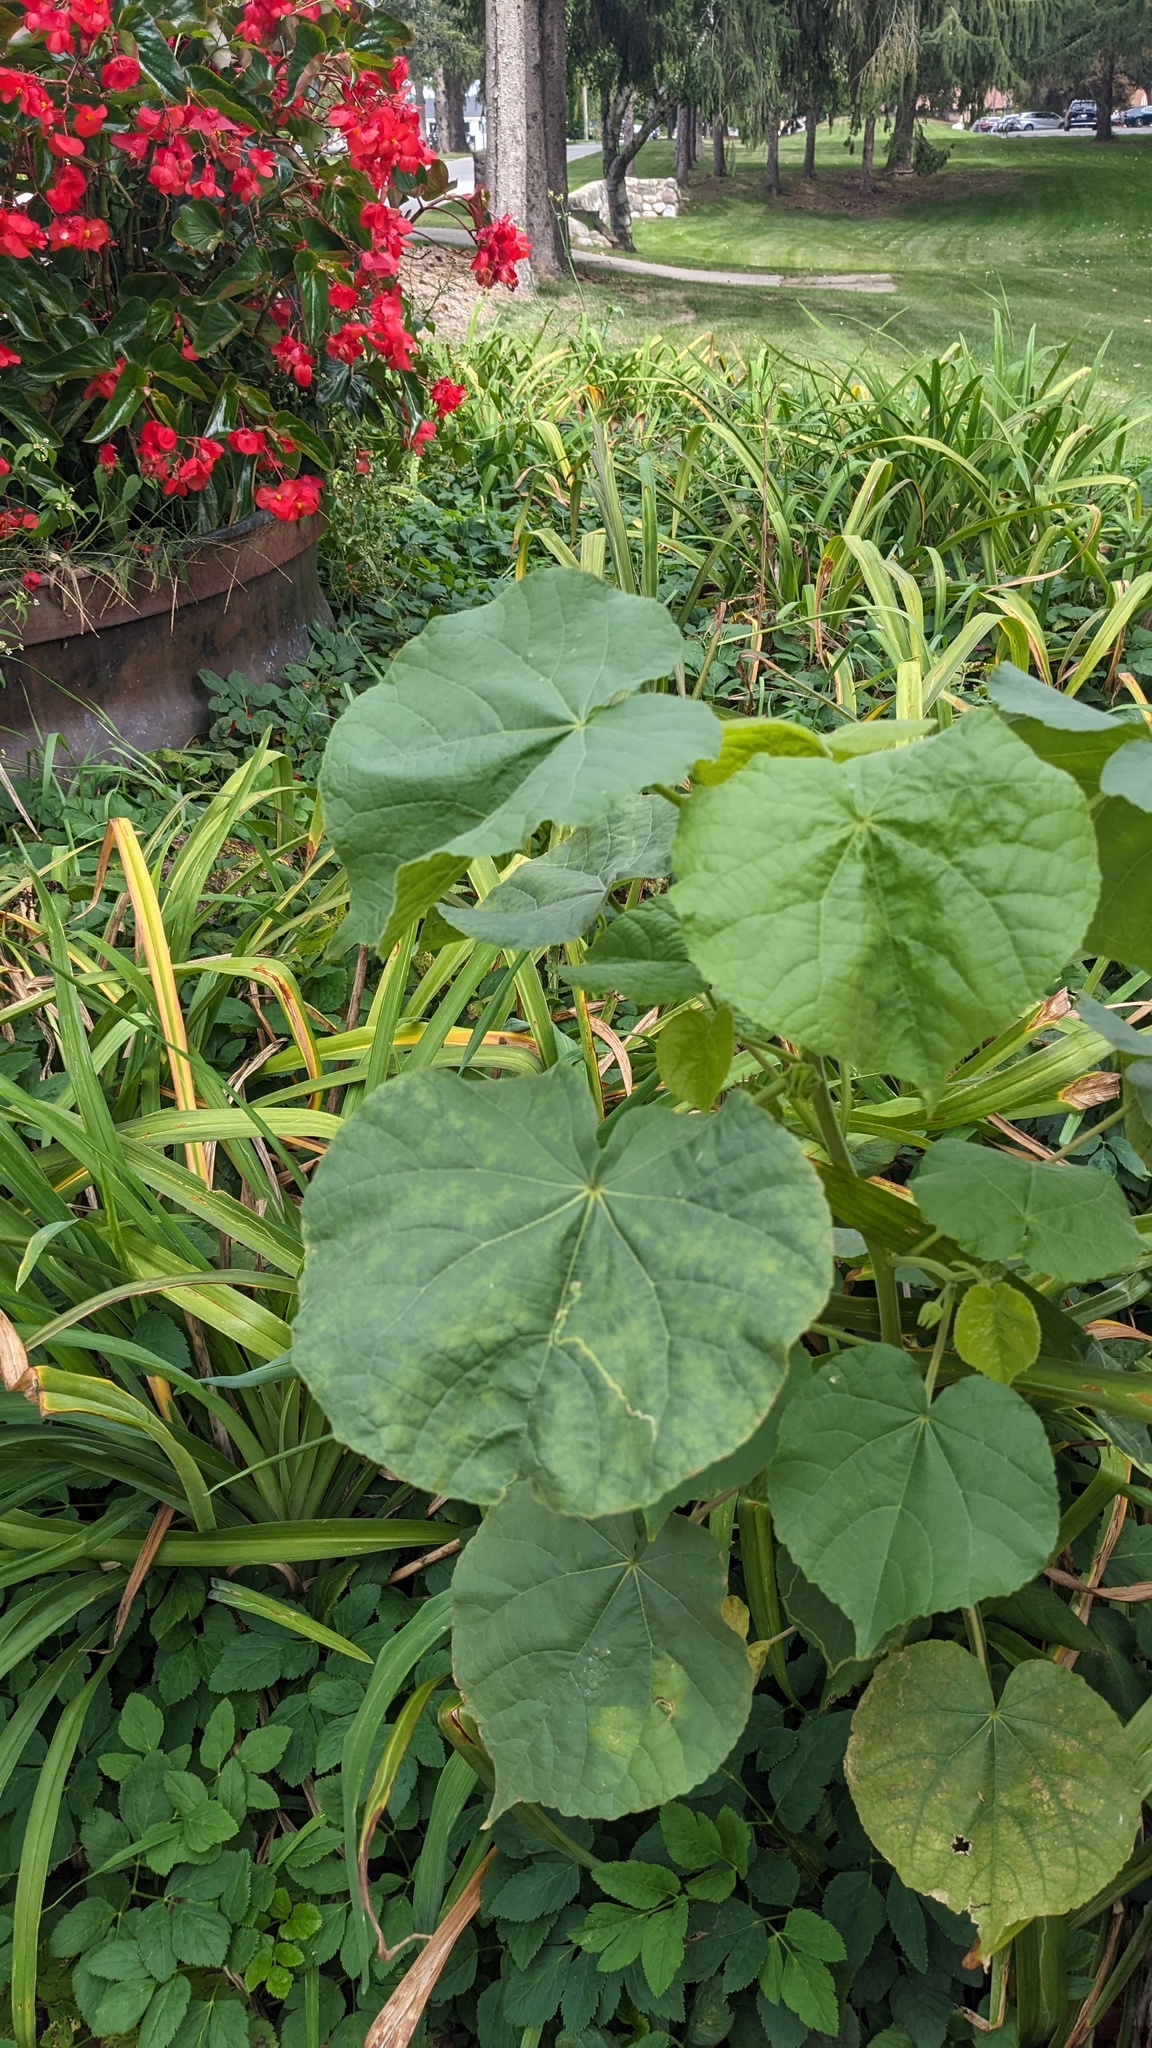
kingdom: Plantae
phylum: Tracheophyta
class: Magnoliopsida
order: Malvales
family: Malvaceae
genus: Abutilon
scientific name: Abutilon theophrasti
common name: Velvetleaf
